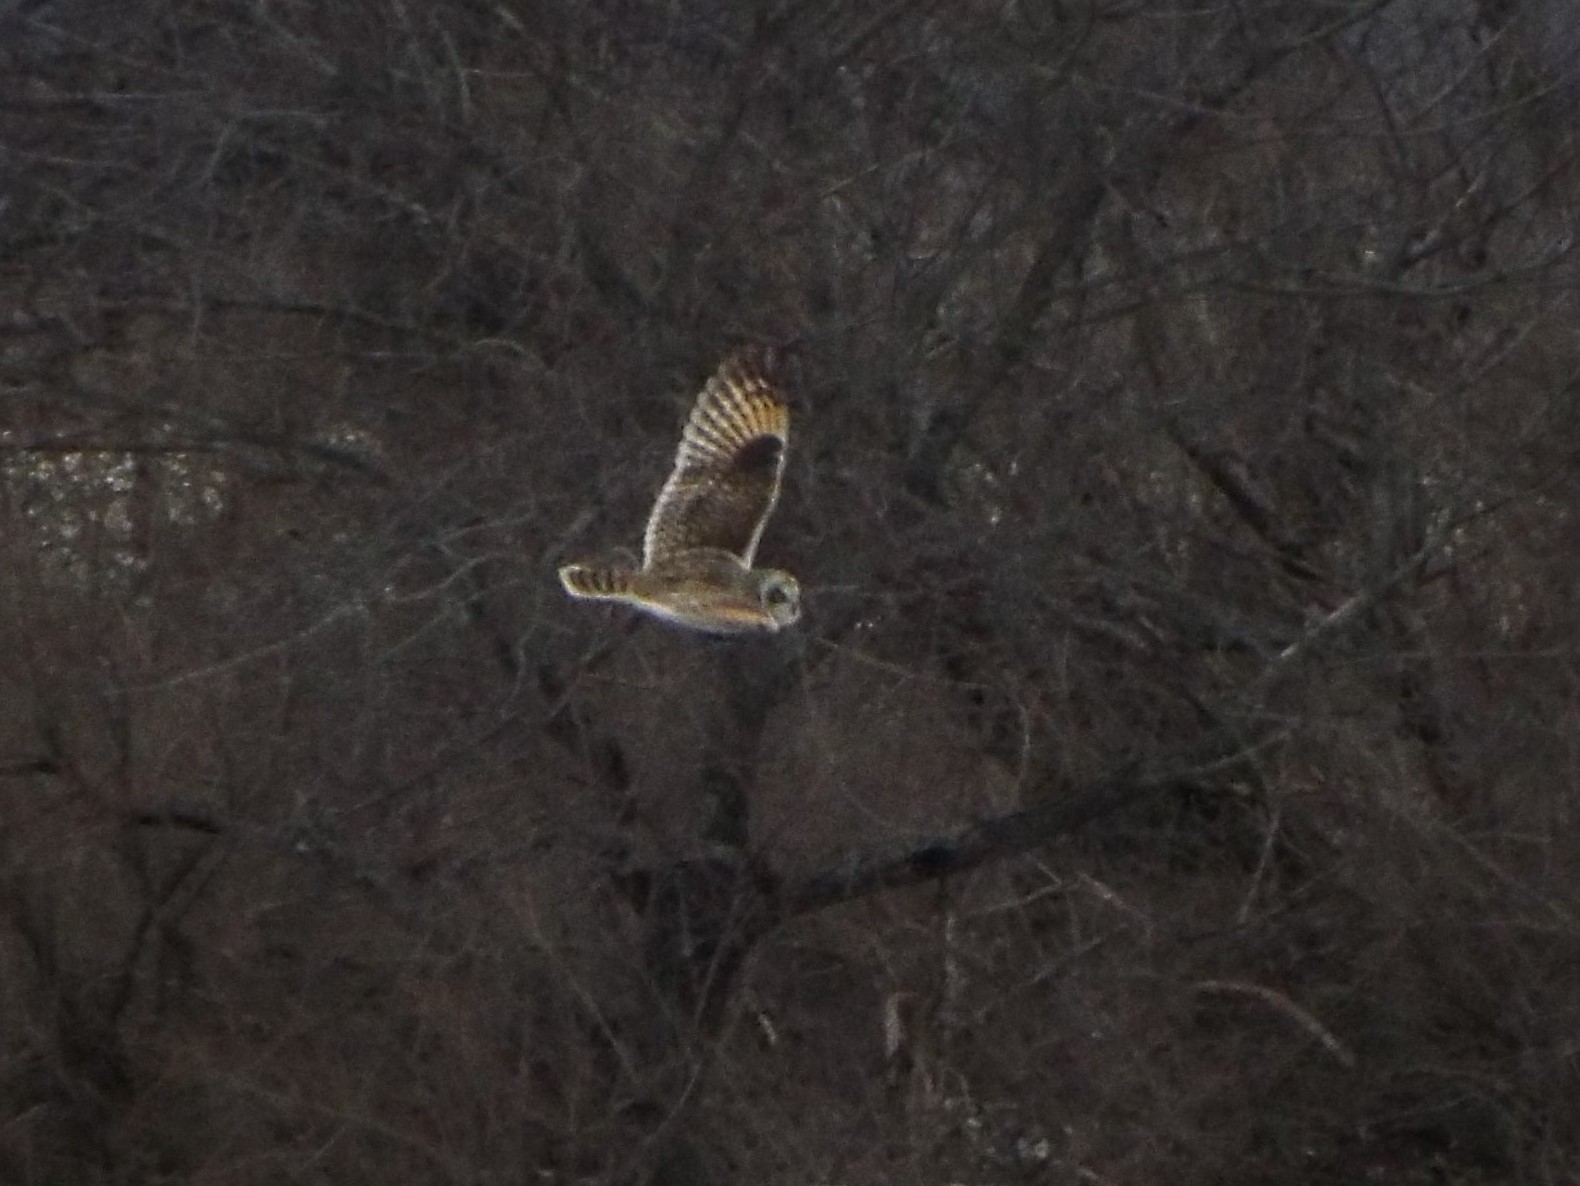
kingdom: Animalia
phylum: Chordata
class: Aves
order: Strigiformes
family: Strigidae
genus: Asio
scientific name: Asio flammeus
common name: Short-eared owl
